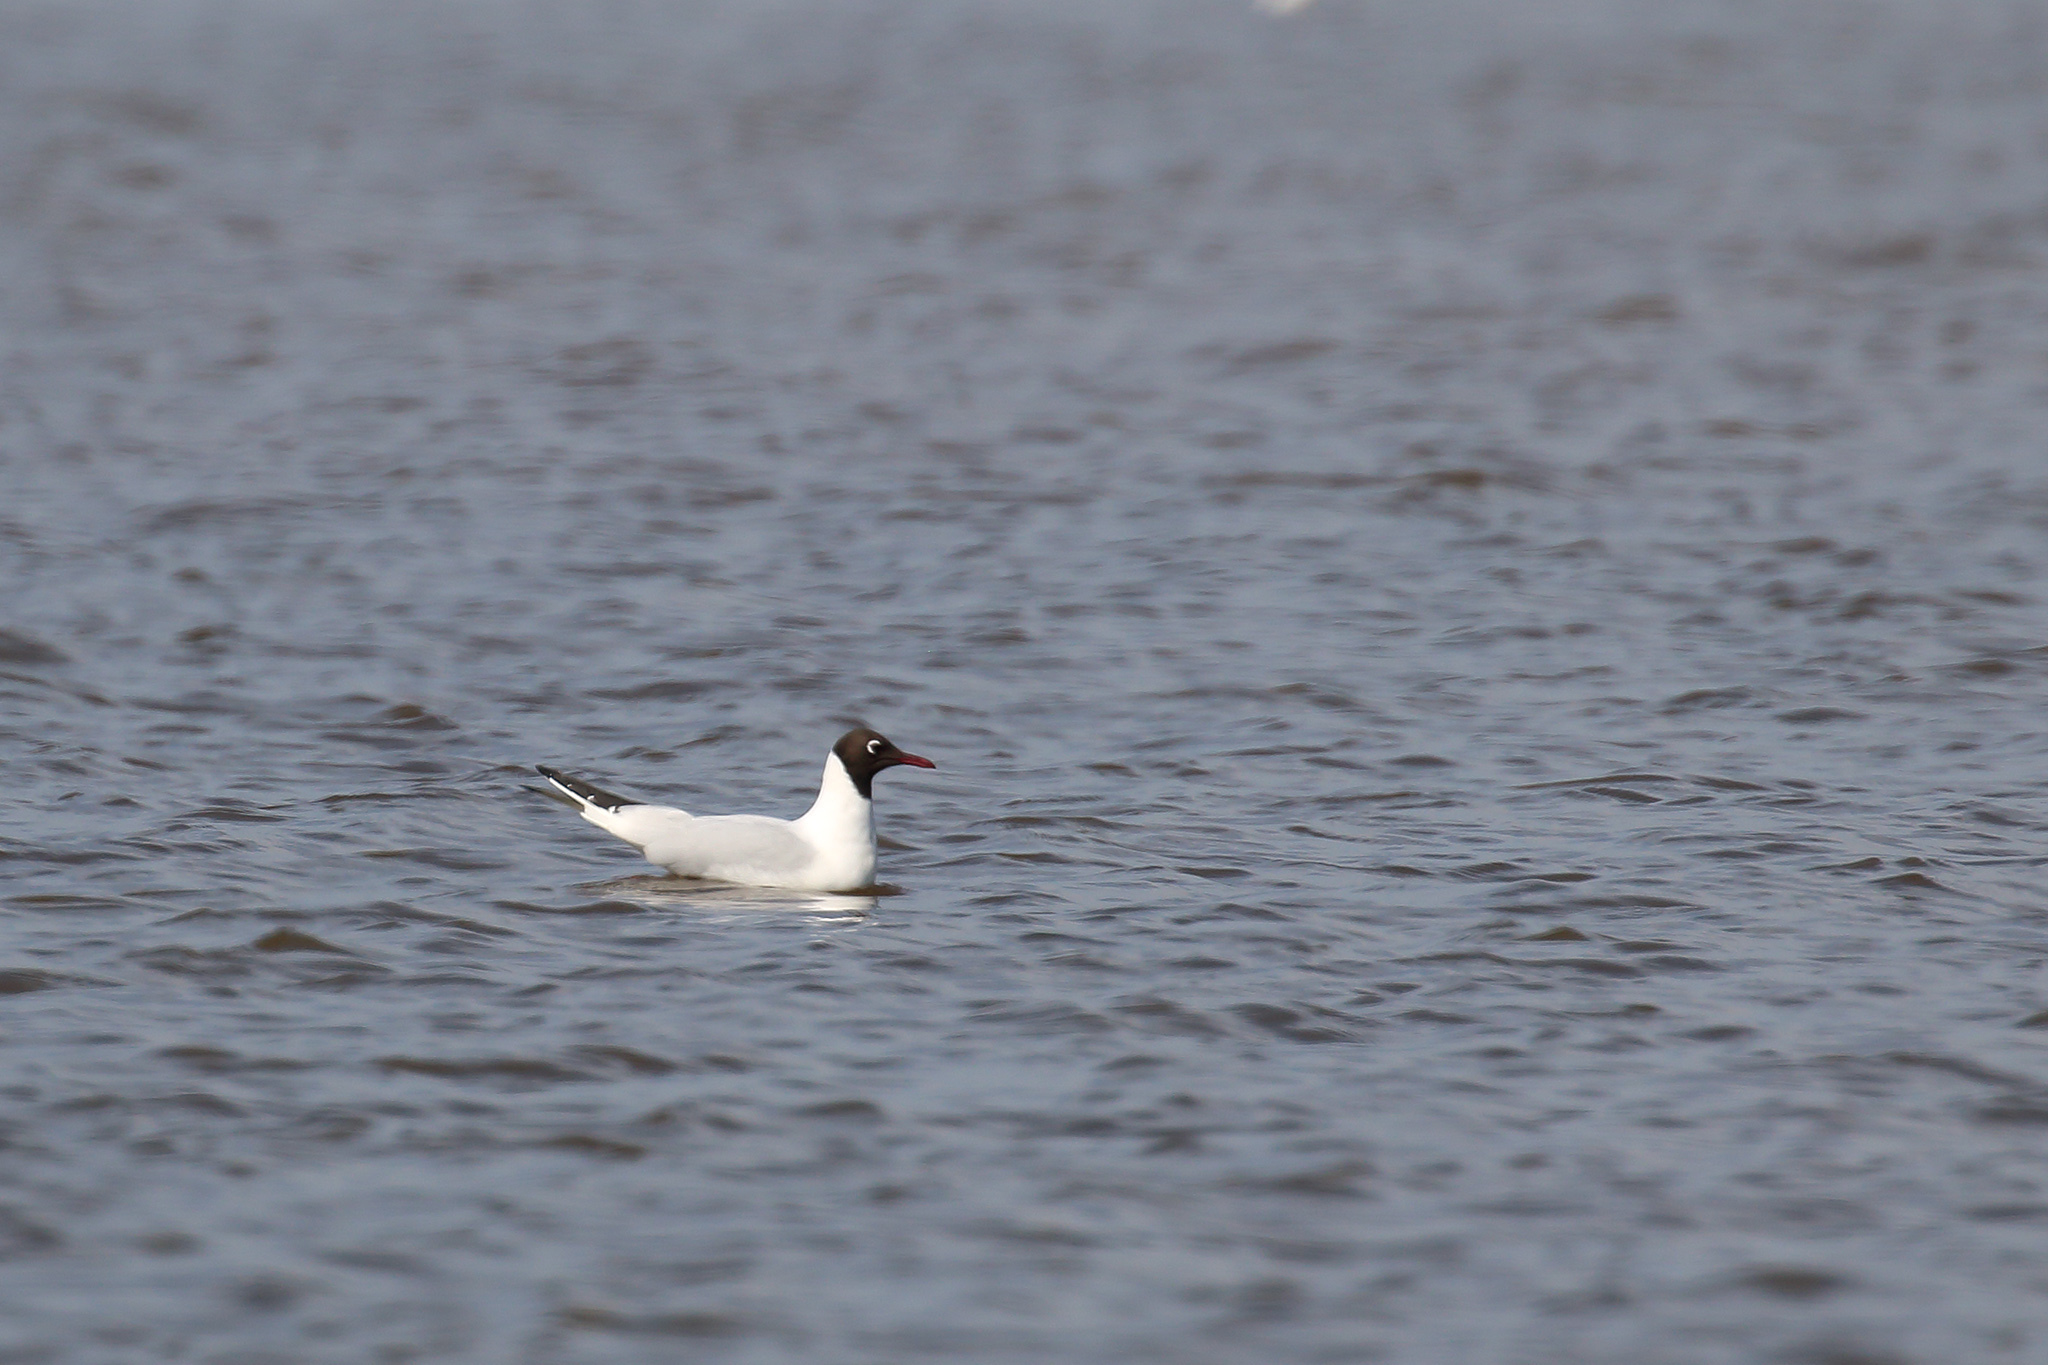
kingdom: Animalia
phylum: Chordata
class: Aves
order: Charadriiformes
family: Laridae
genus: Chroicocephalus
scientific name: Chroicocephalus ridibundus
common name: Black-headed gull
